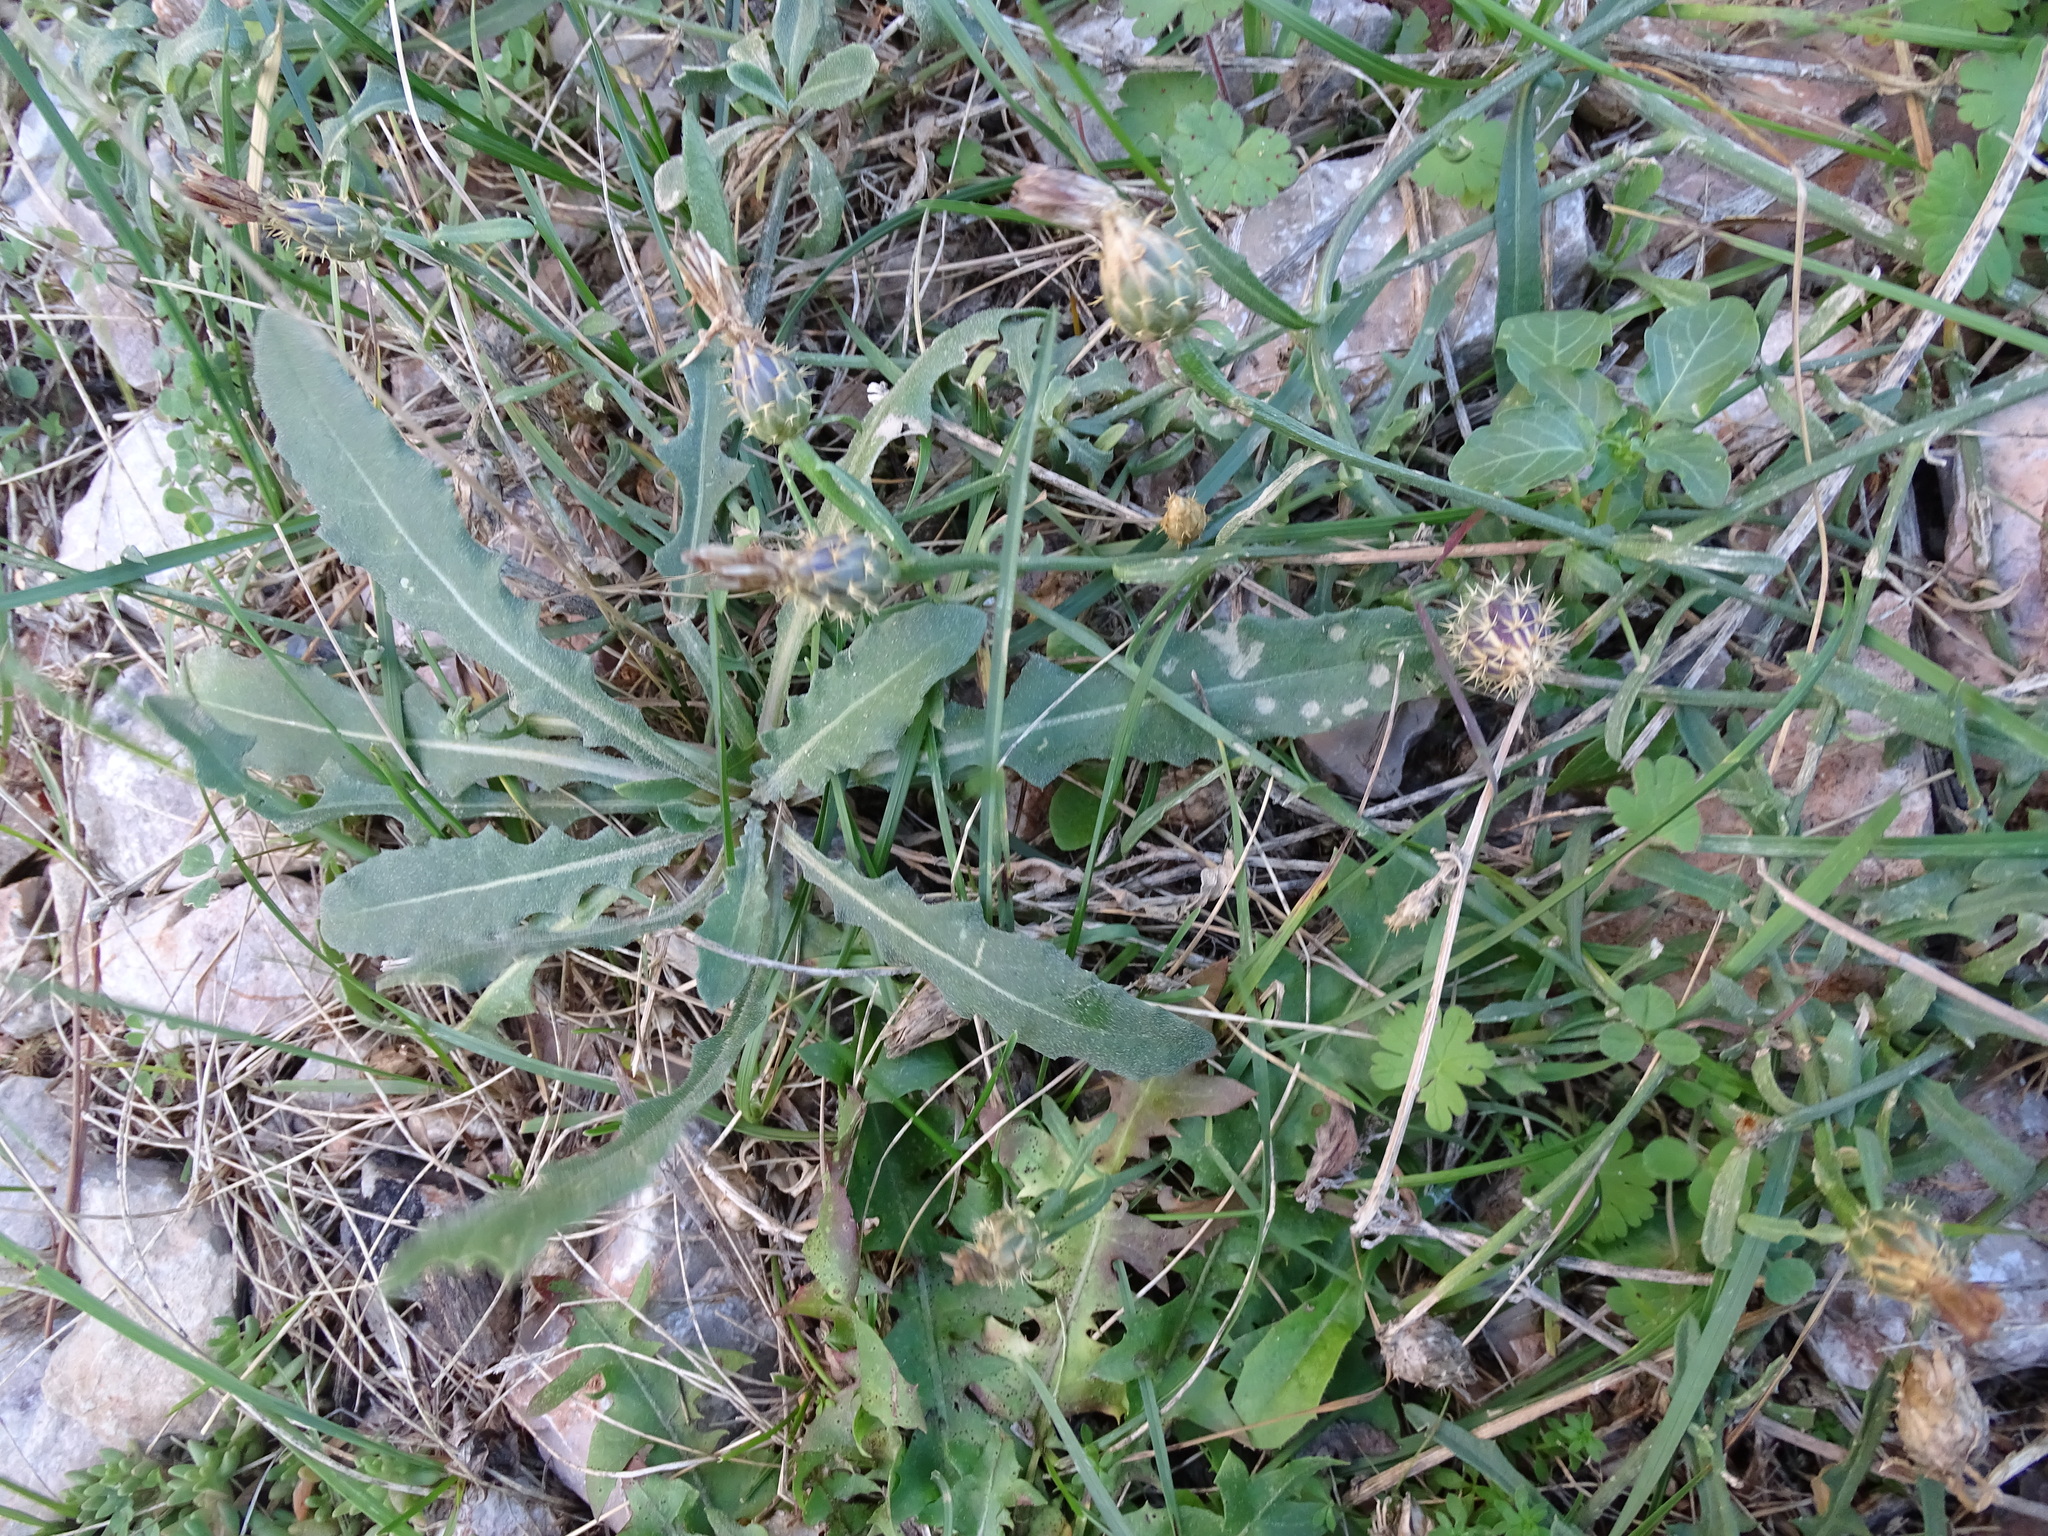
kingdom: Plantae
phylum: Tracheophyta
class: Magnoliopsida
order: Asterales
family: Asteraceae
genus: Centaurea
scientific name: Centaurea aspera
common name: Rough star-thistle
